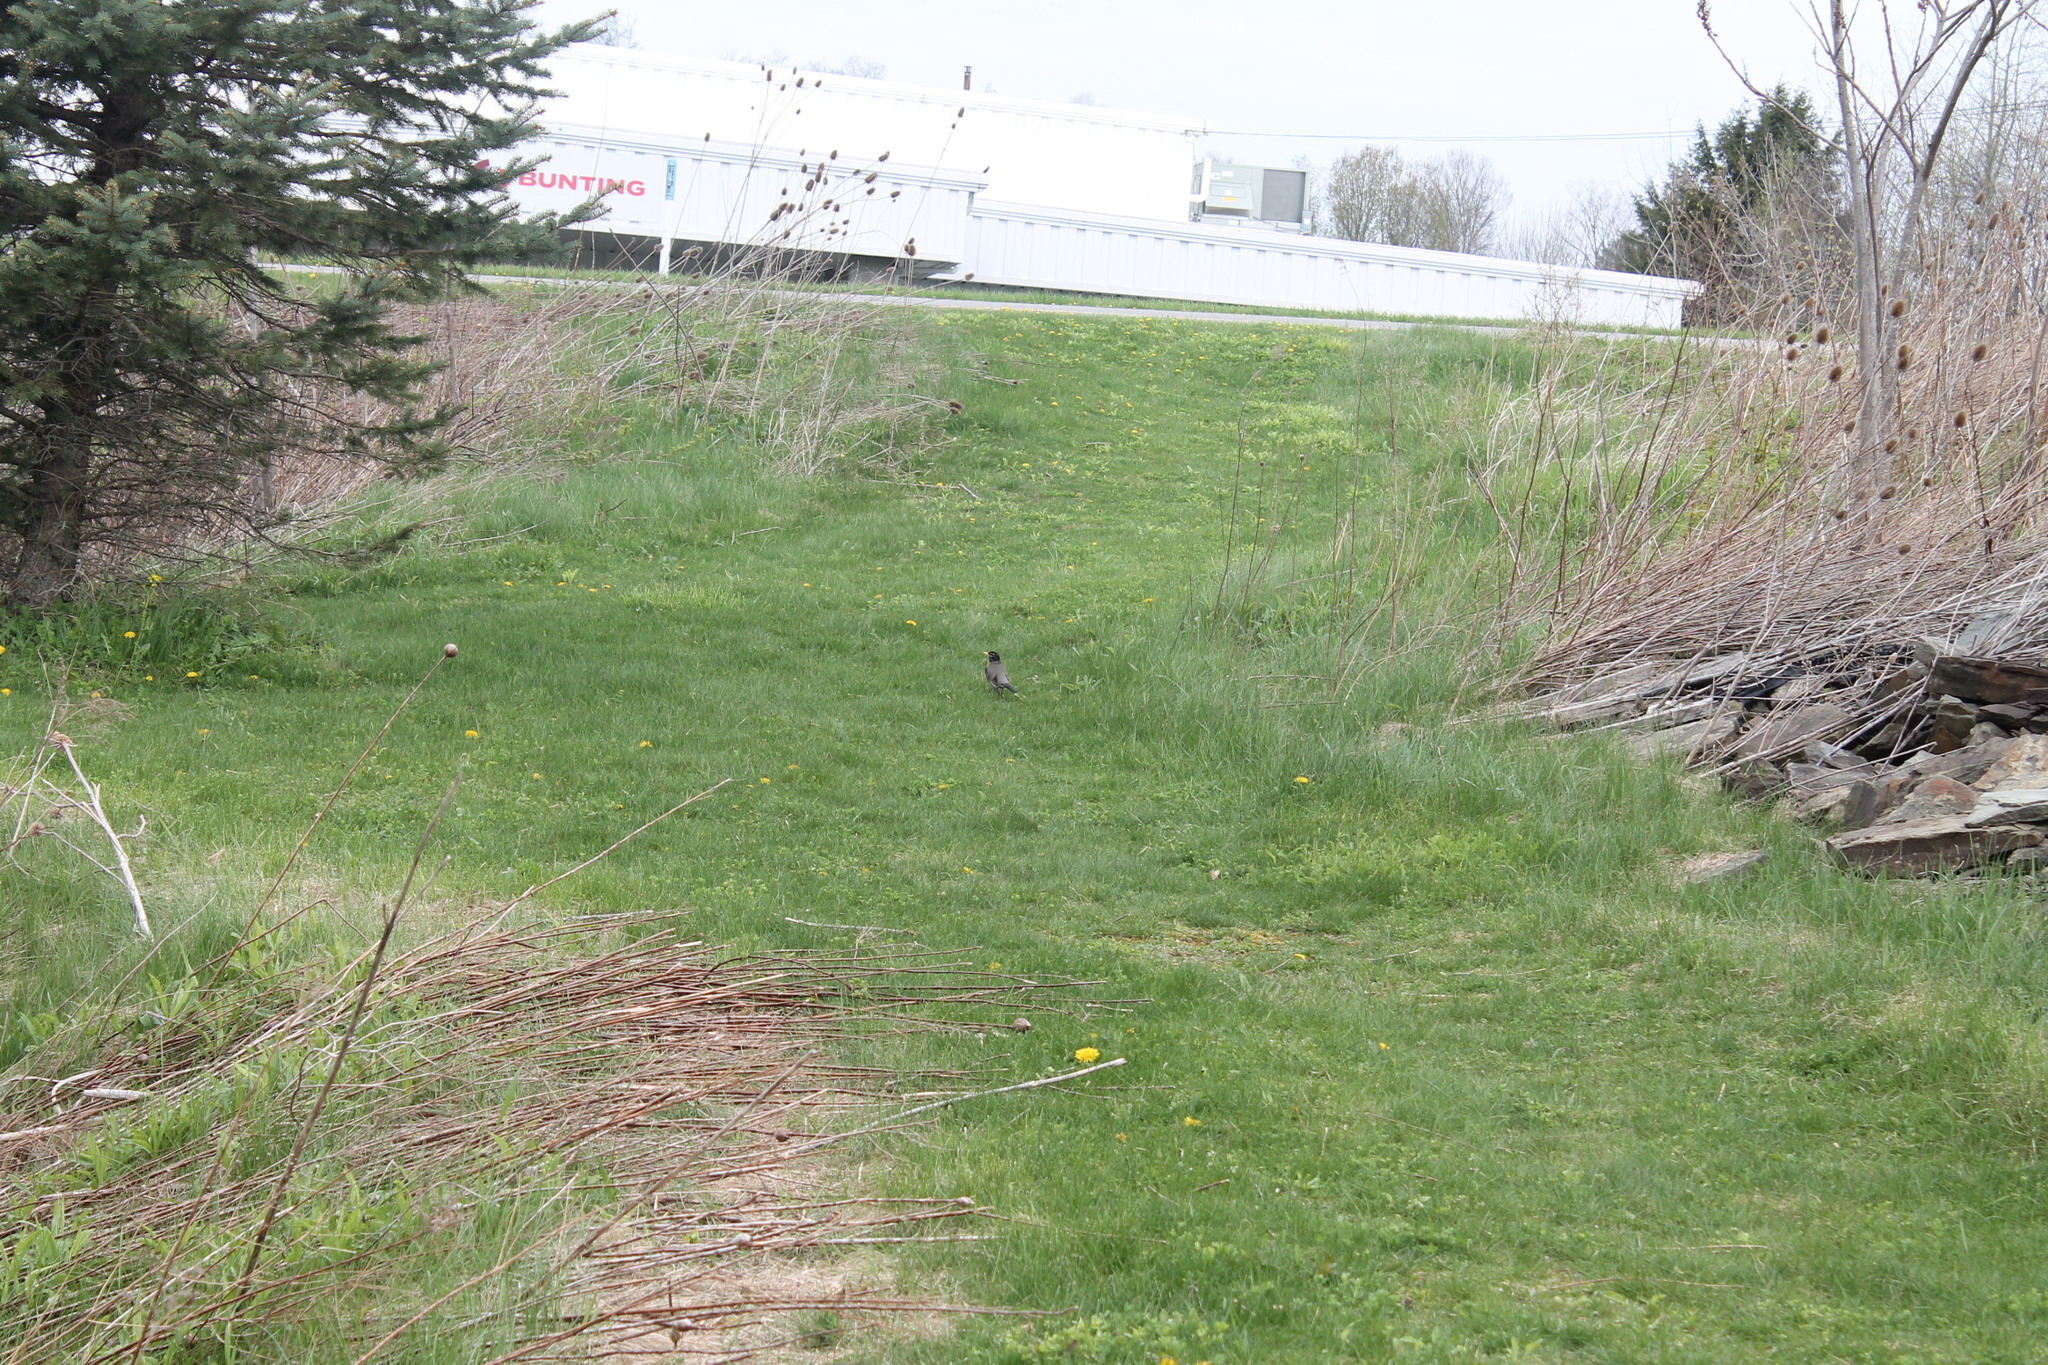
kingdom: Animalia
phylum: Chordata
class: Aves
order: Passeriformes
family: Turdidae
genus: Turdus
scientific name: Turdus migratorius
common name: American robin
